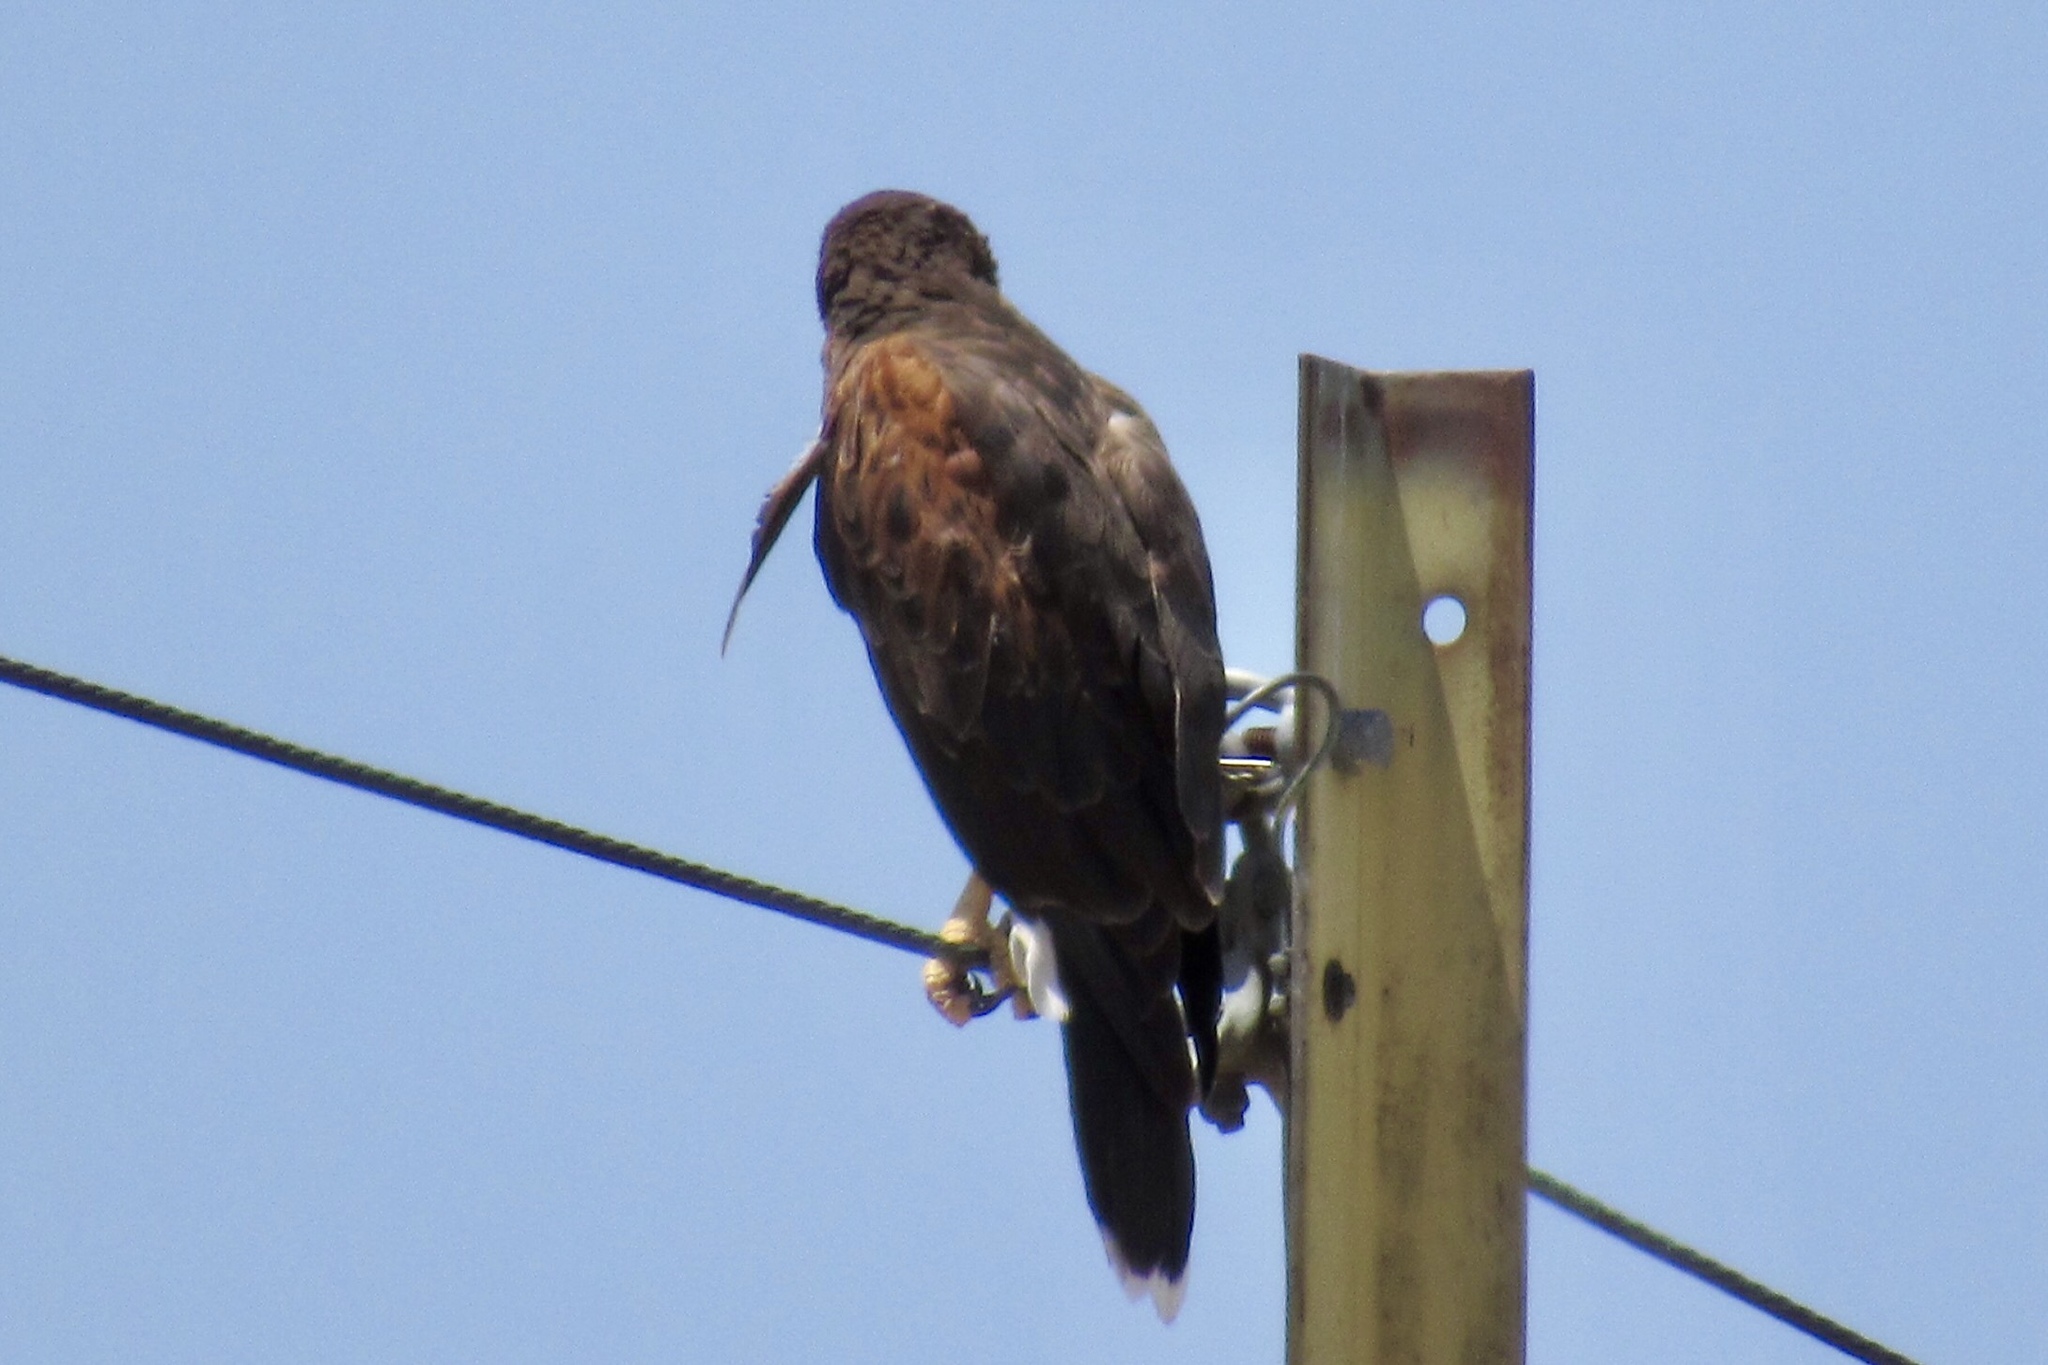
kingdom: Animalia
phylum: Chordata
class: Aves
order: Accipitriformes
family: Accipitridae
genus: Parabuteo
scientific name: Parabuteo unicinctus
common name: Harris's hawk
